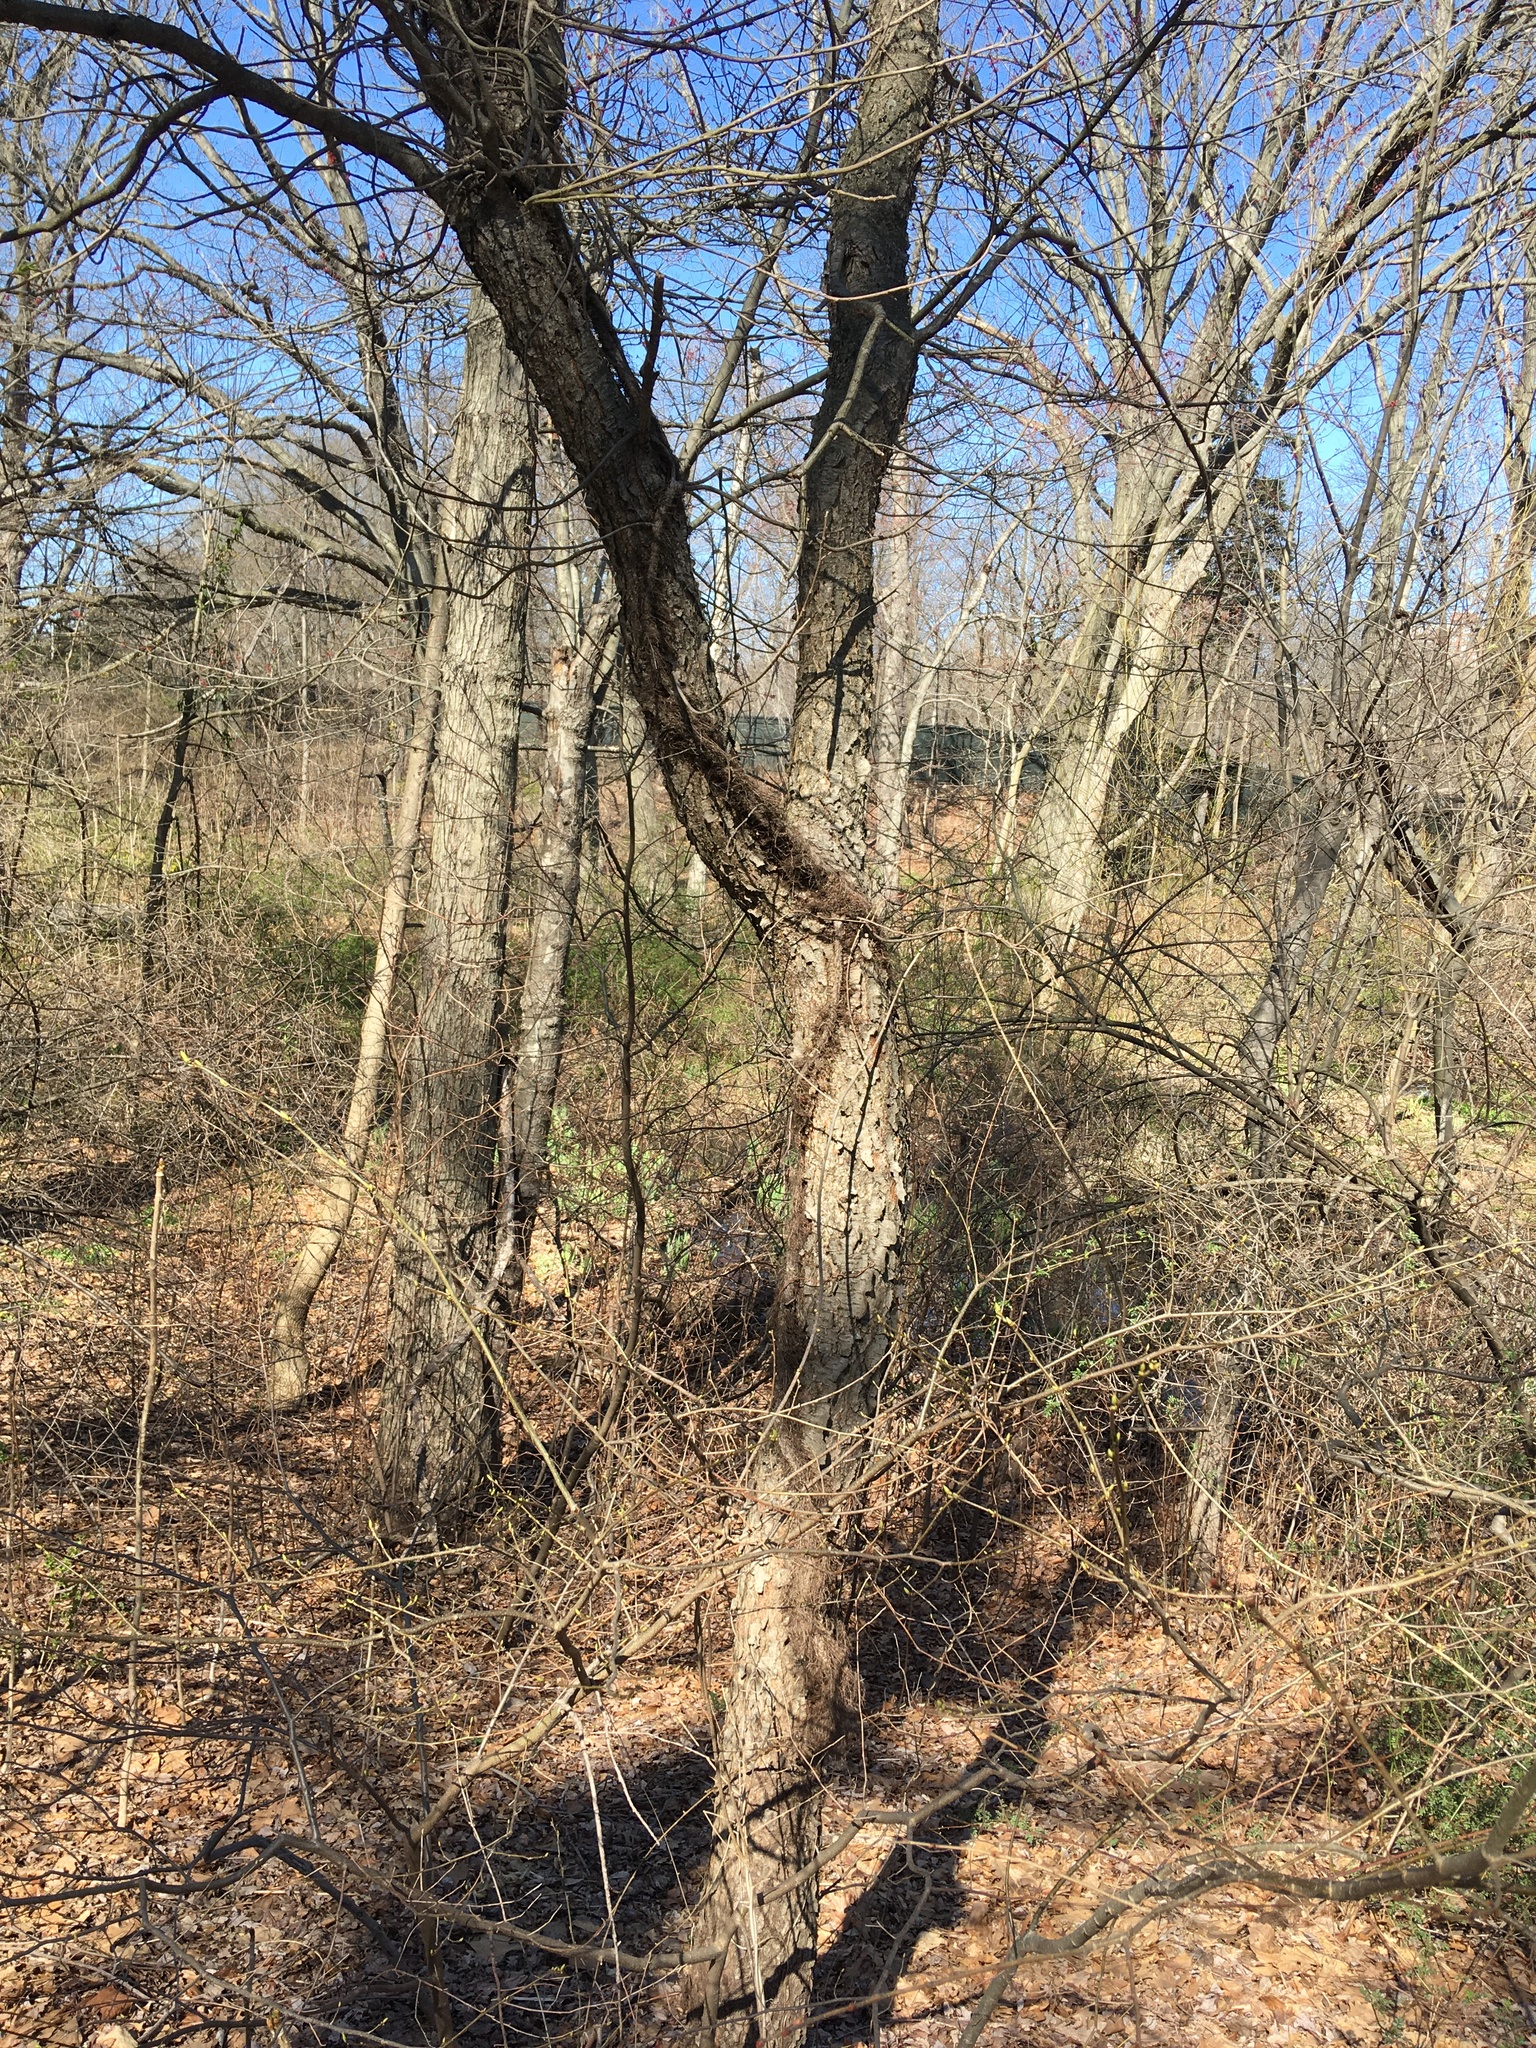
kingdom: Plantae
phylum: Tracheophyta
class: Magnoliopsida
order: Rosales
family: Rosaceae
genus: Prunus
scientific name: Prunus serotina
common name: Black cherry
